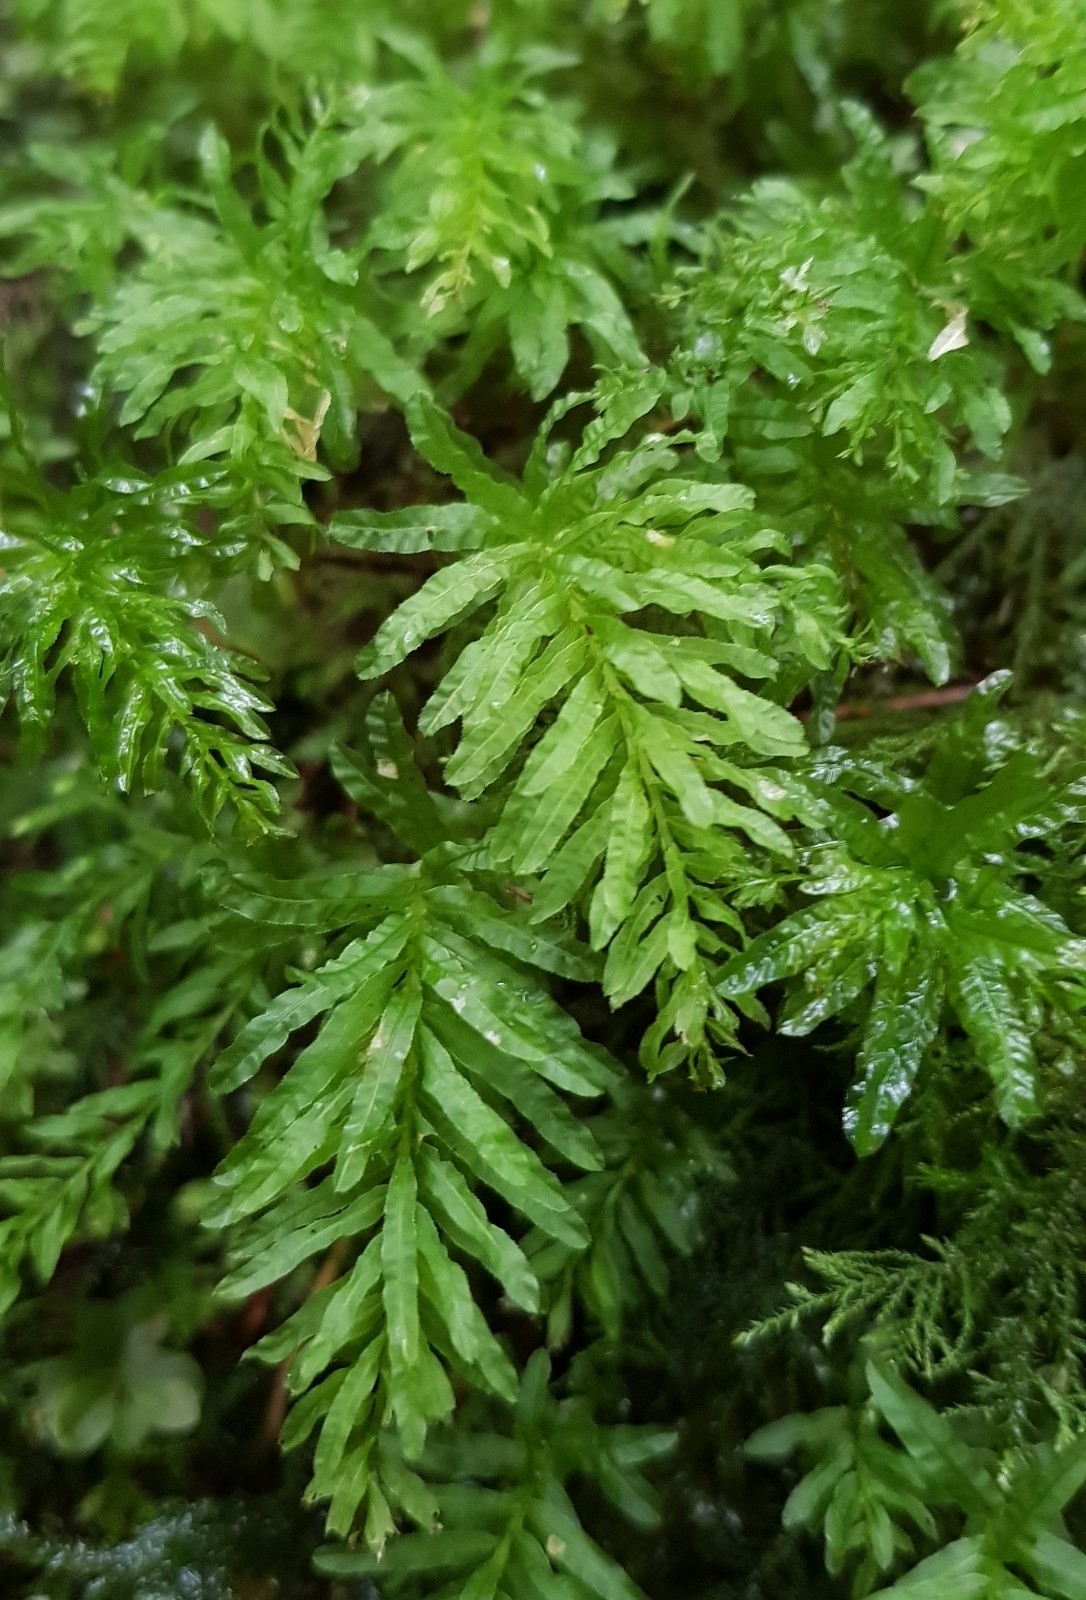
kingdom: Plantae
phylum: Bryophyta
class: Bryopsida
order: Bryales
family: Mniaceae
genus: Plagiomnium
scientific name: Plagiomnium undulatum
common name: Hart's-tongue thyme-moss
